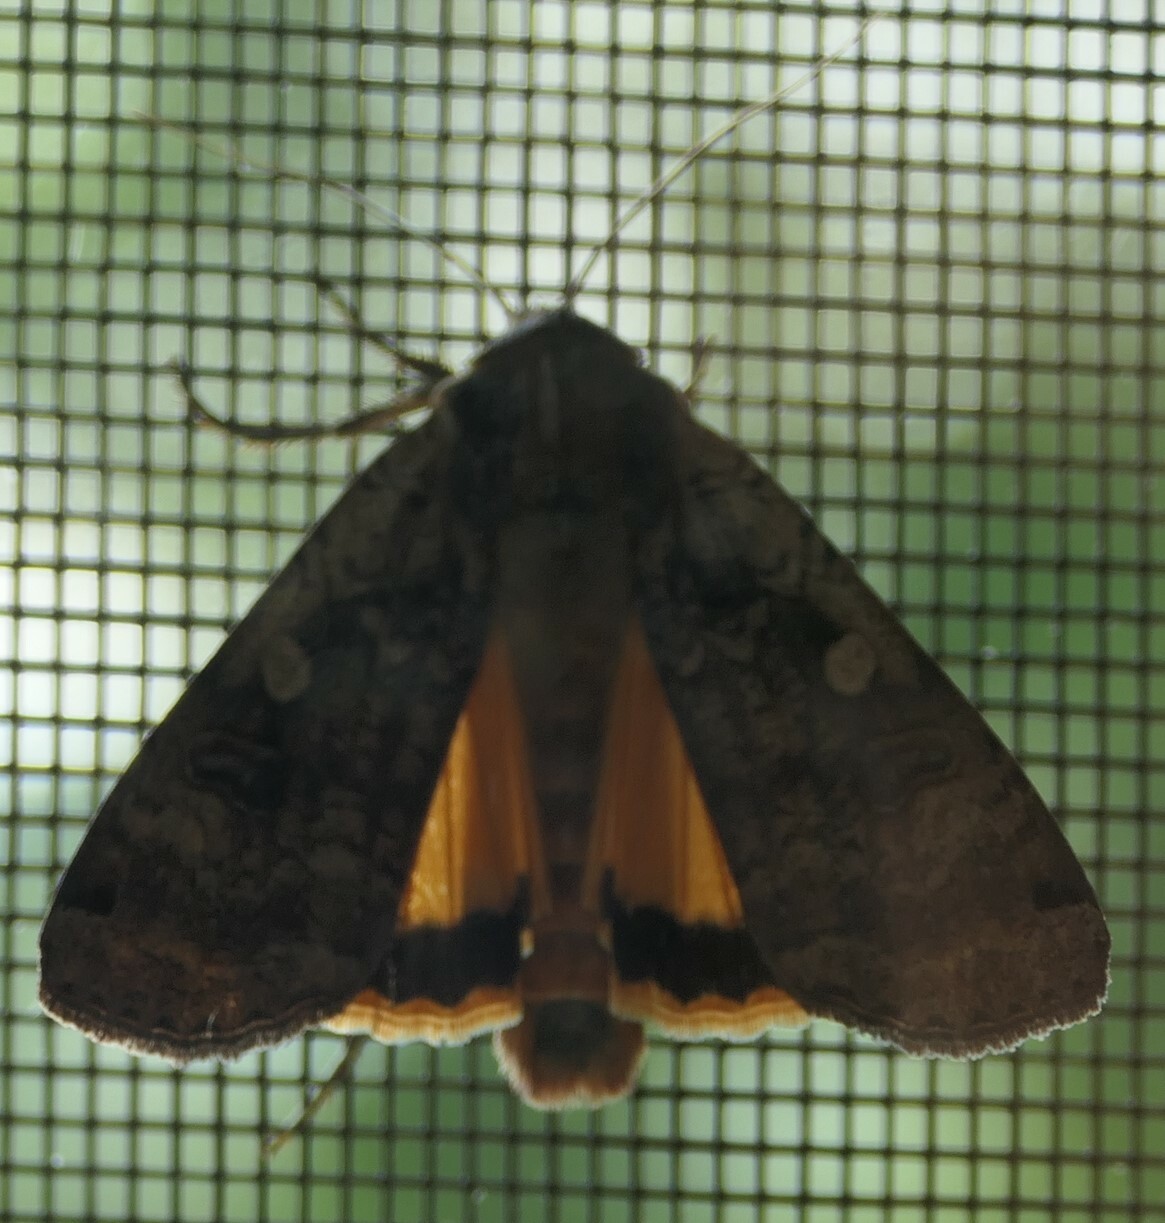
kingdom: Animalia
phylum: Arthropoda
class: Insecta
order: Lepidoptera
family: Noctuidae
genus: Noctua
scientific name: Noctua pronuba
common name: Large yellow underwing
